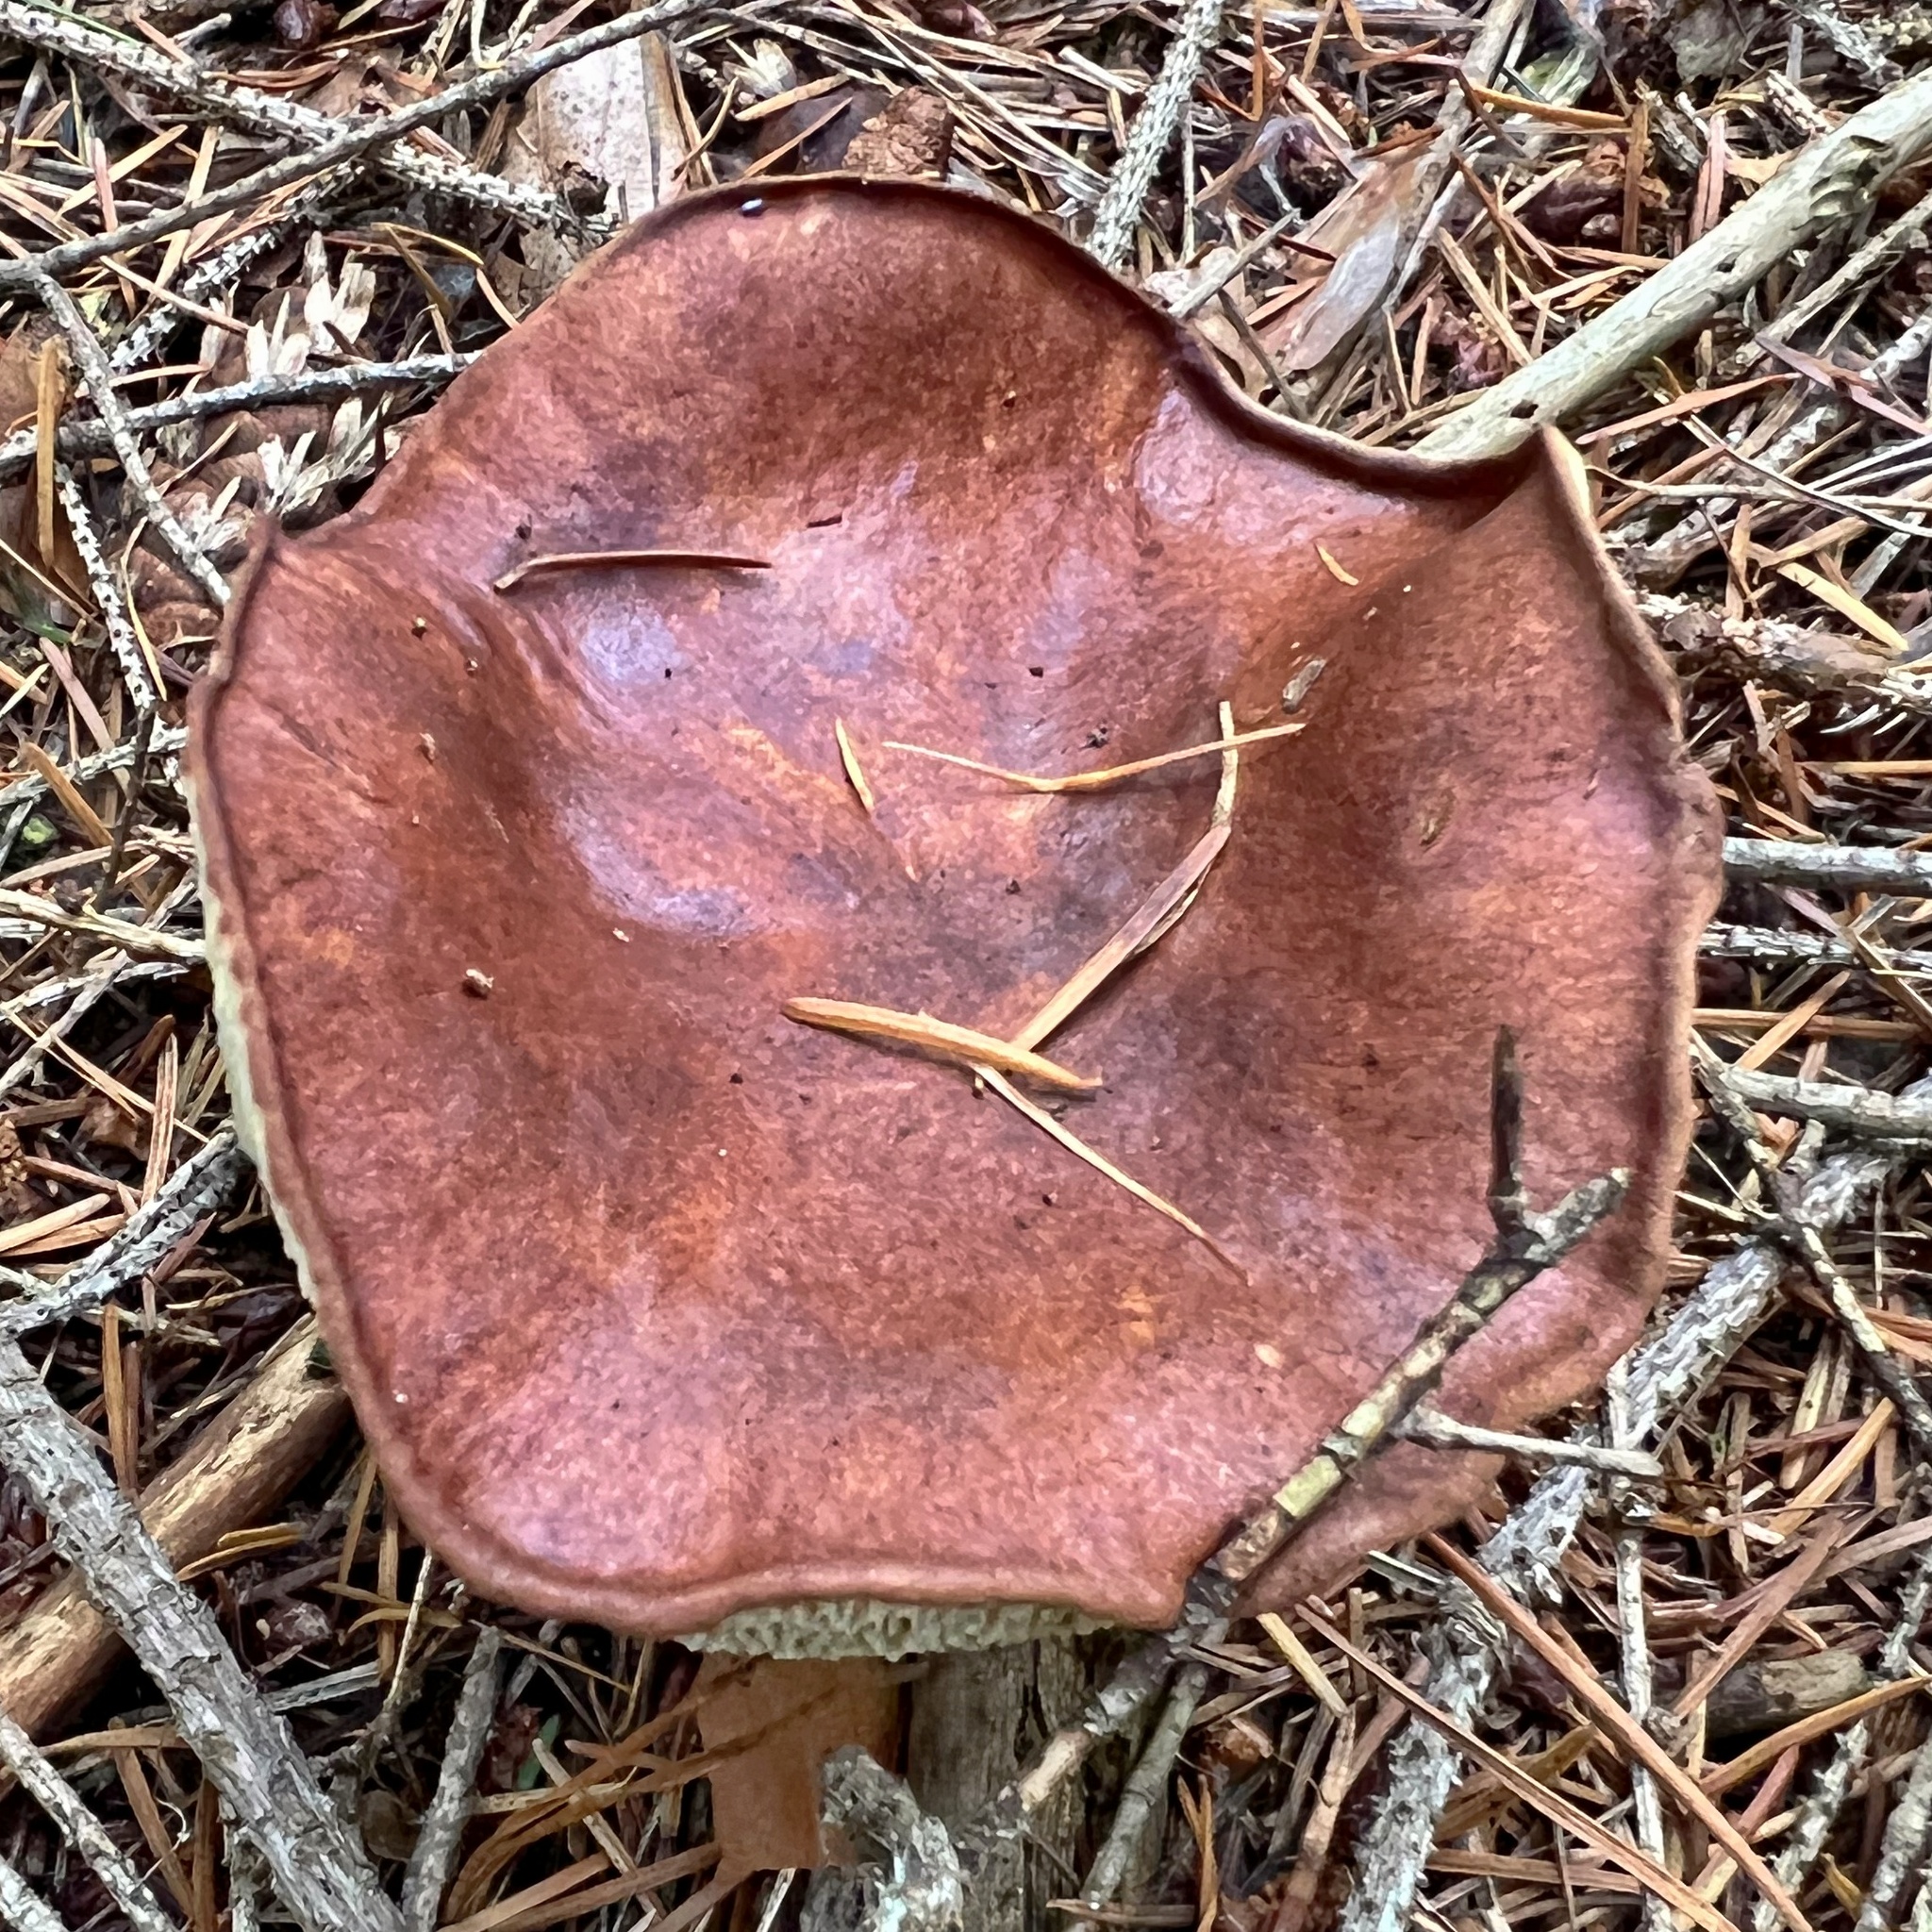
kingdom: Fungi
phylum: Basidiomycota
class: Agaricomycetes
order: Boletales
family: Boletaceae
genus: Imleria
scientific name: Imleria badia
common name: Bay bolete
